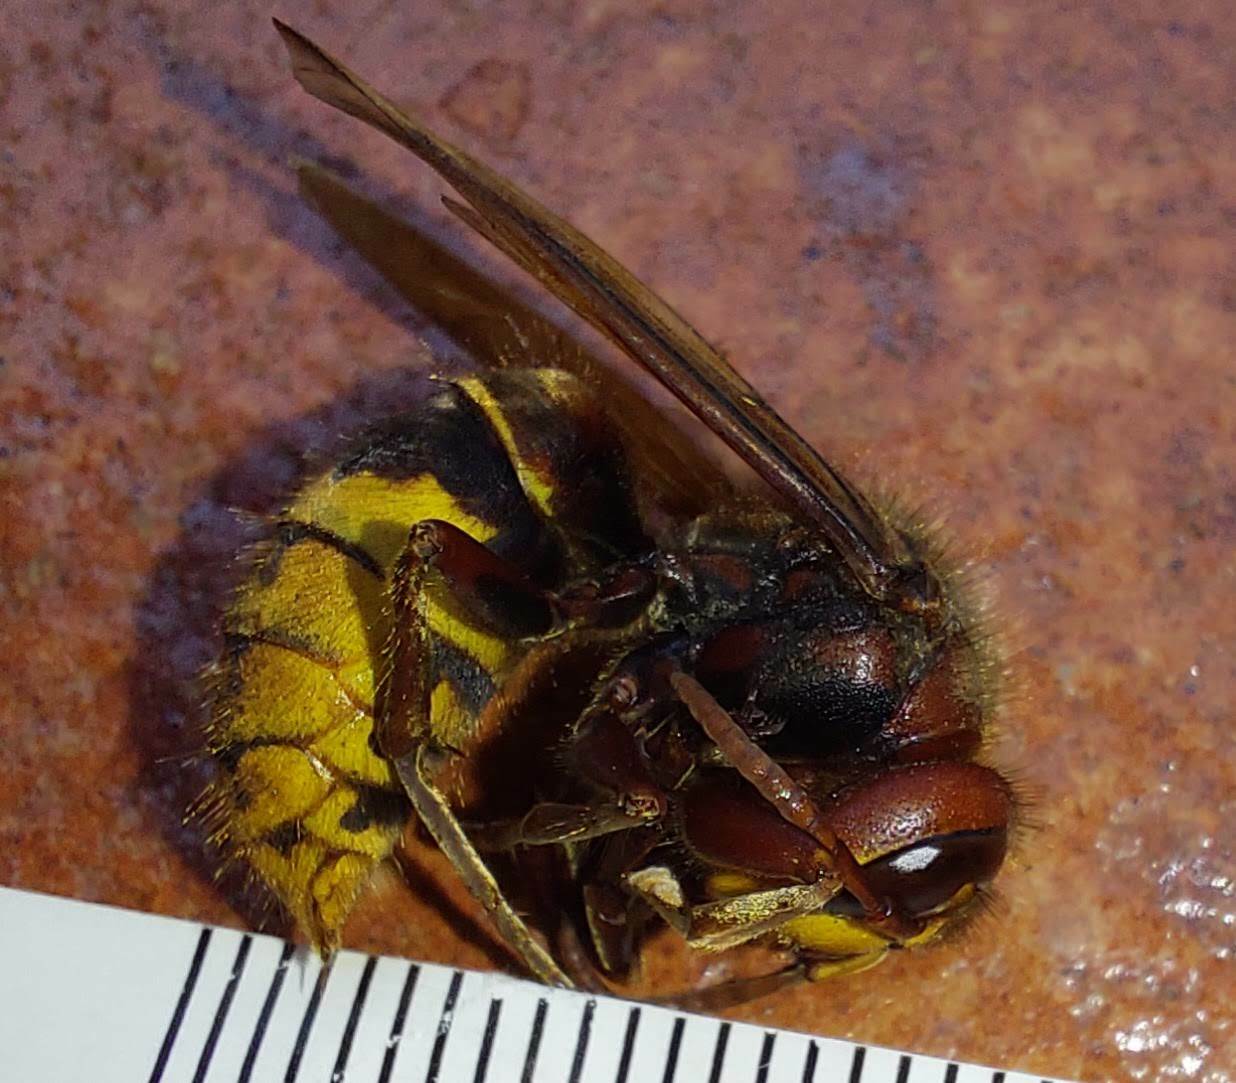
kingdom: Animalia
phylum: Arthropoda
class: Insecta
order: Hymenoptera
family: Vespidae
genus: Vespa
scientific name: Vespa crabro
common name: Hornet
